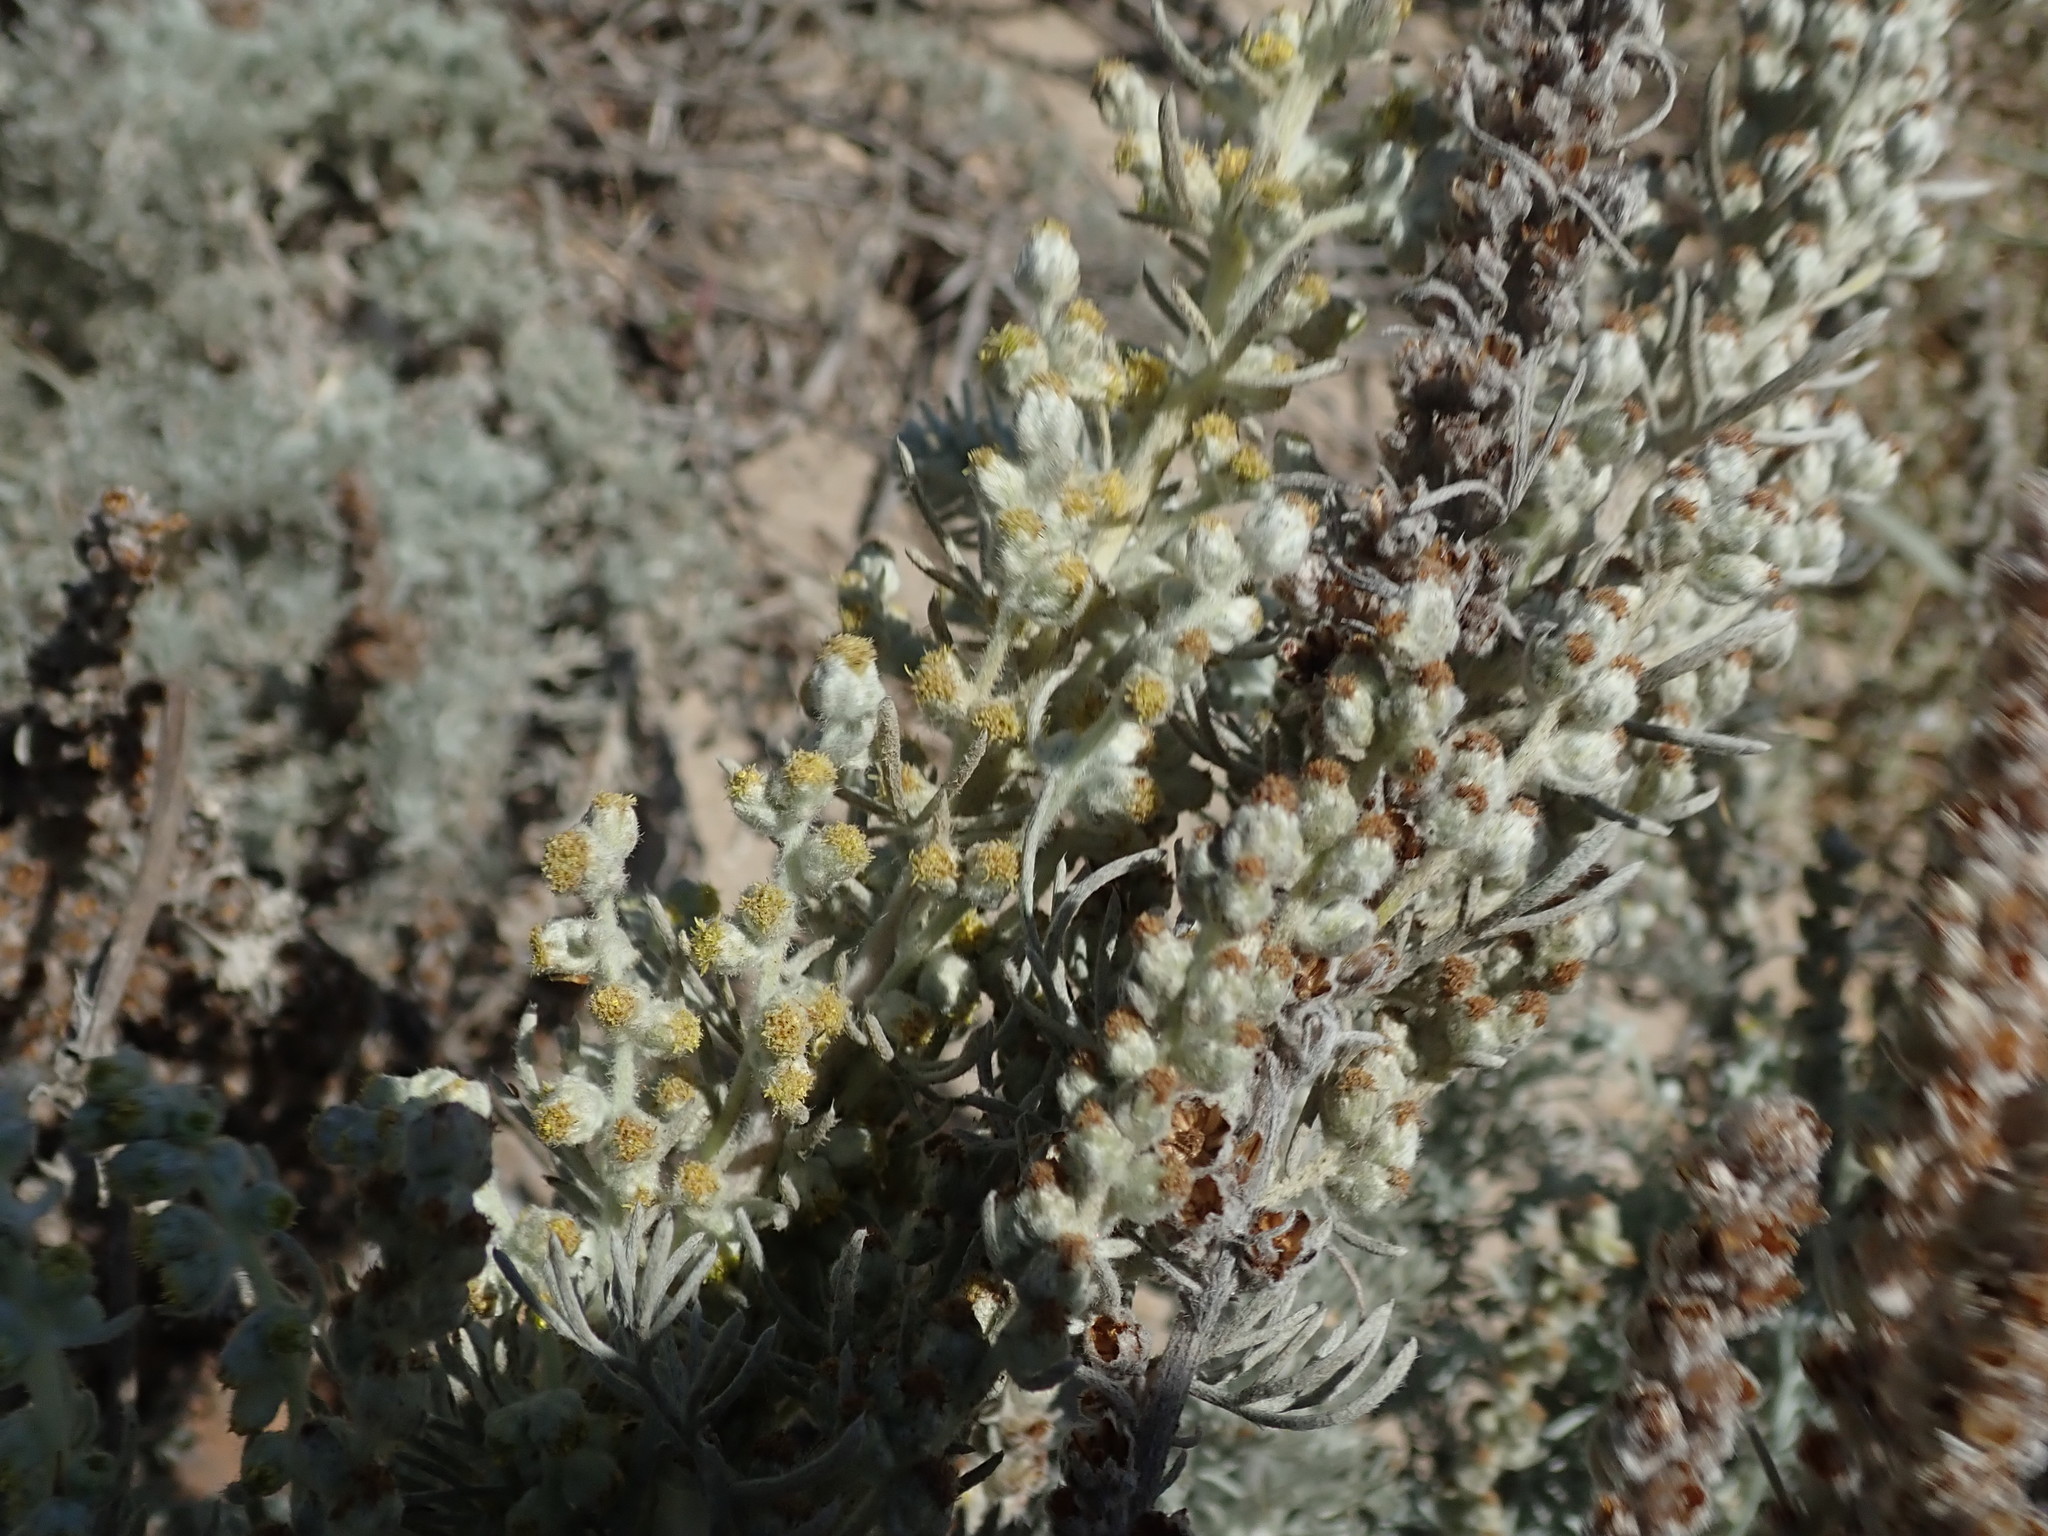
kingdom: Plantae
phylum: Tracheophyta
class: Magnoliopsida
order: Asterales
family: Asteraceae
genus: Artemisia
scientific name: Artemisia pycnocephala
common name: Coastal sagewort
